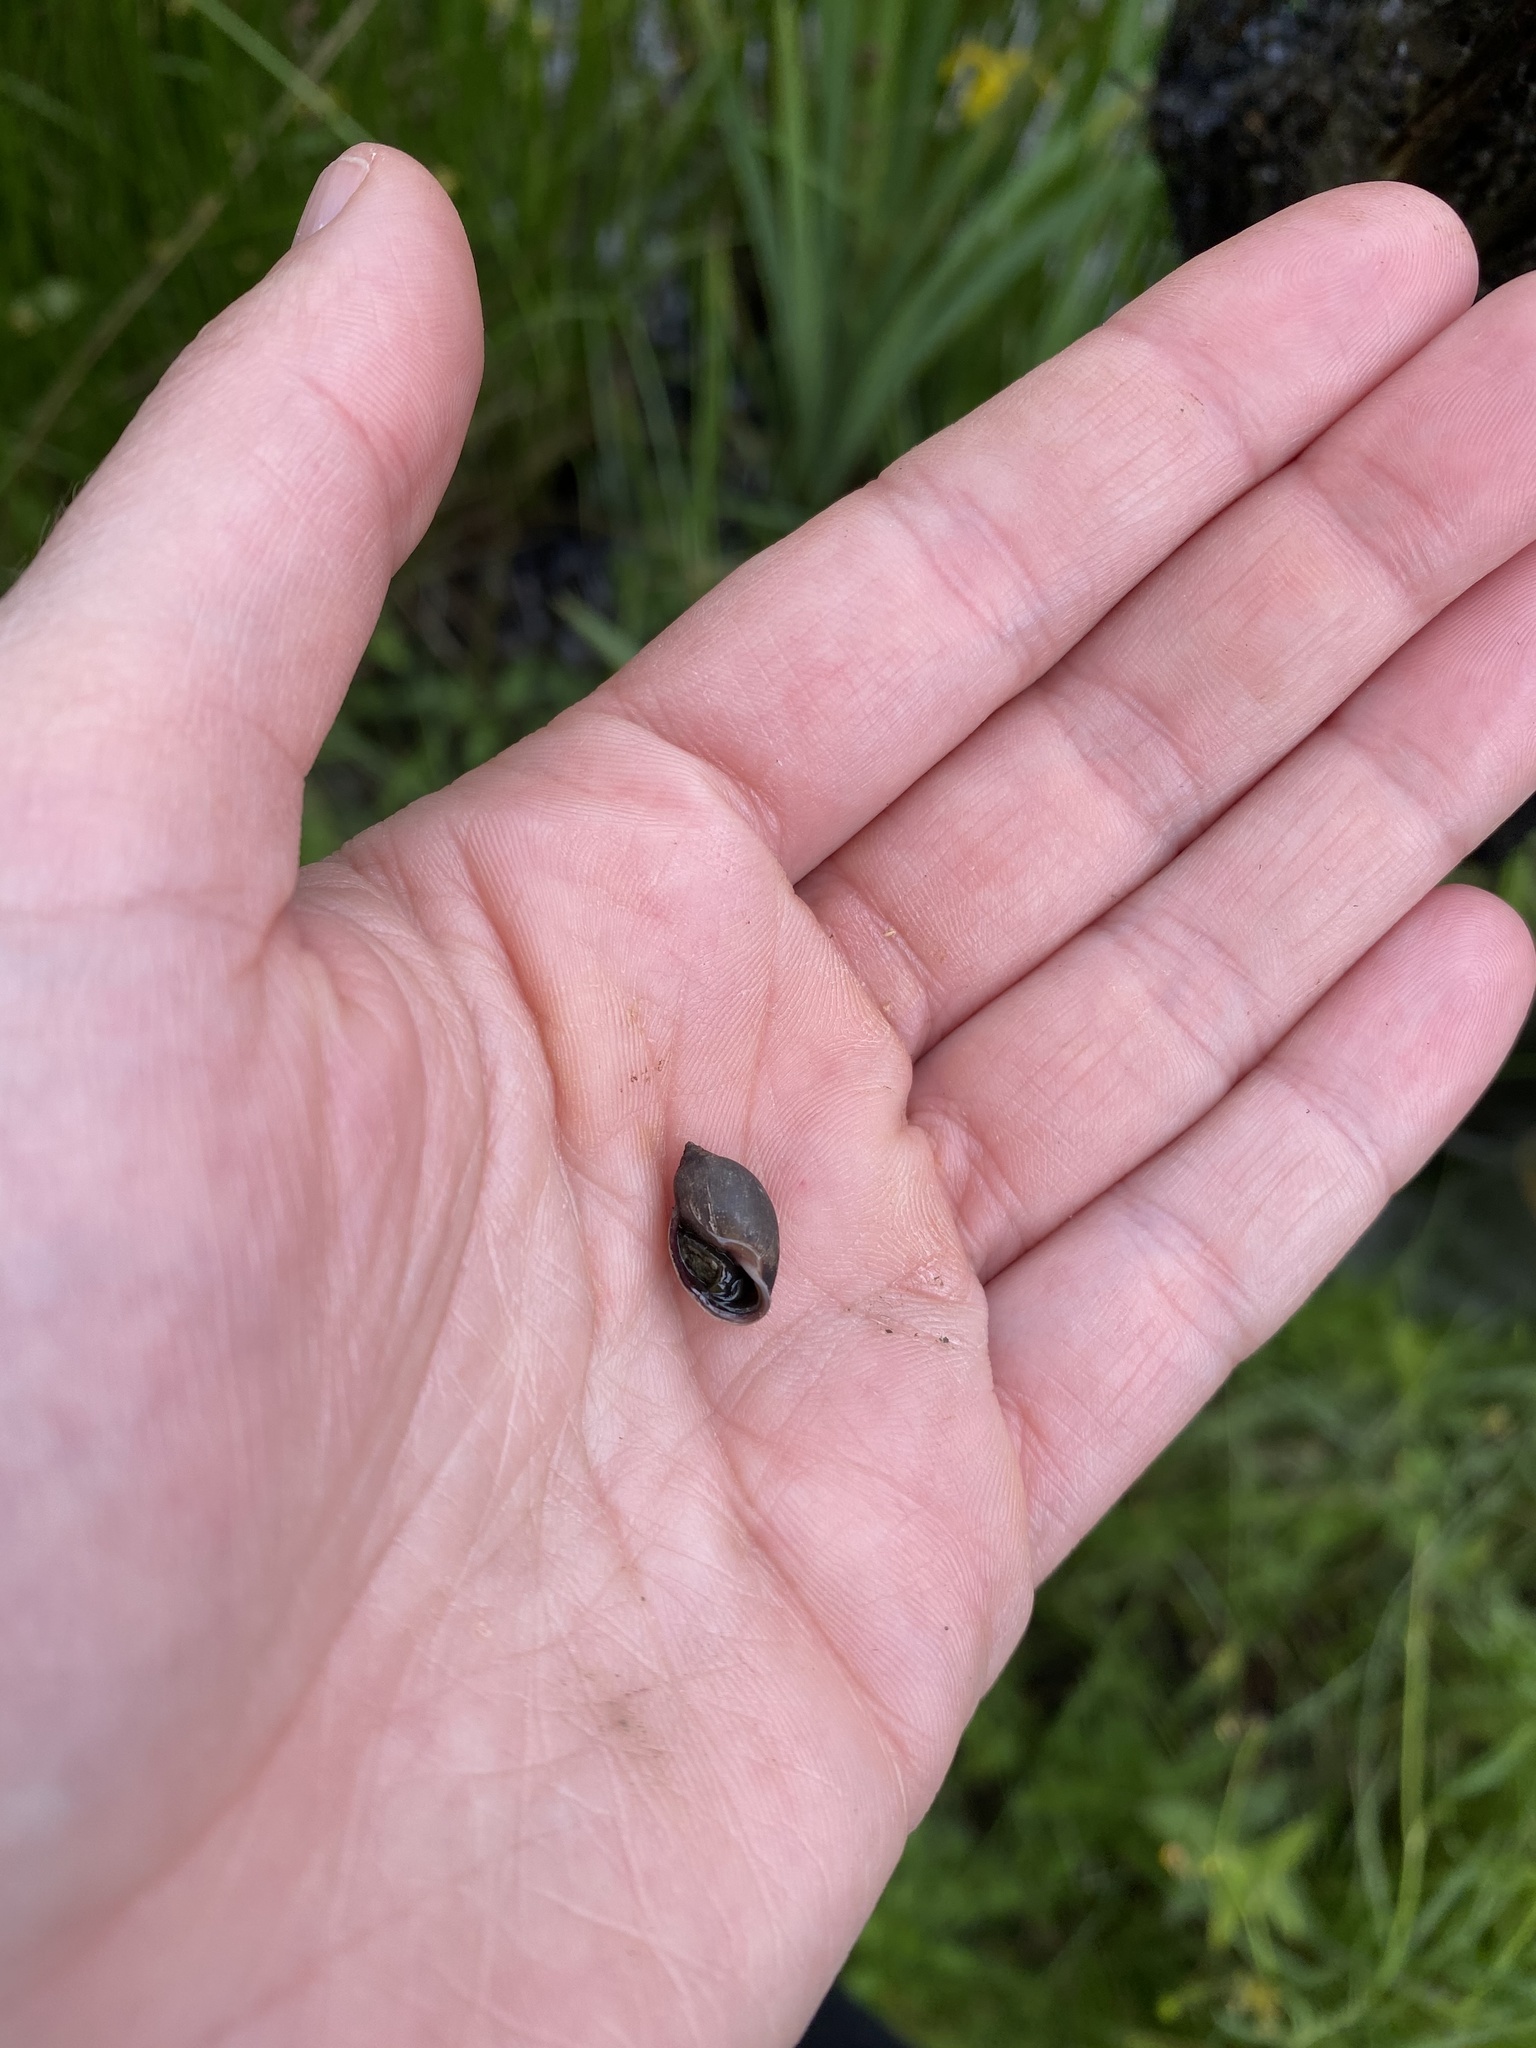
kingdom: Animalia
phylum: Mollusca
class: Gastropoda
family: Physidae
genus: Physella
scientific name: Physella acuta
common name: European physa
